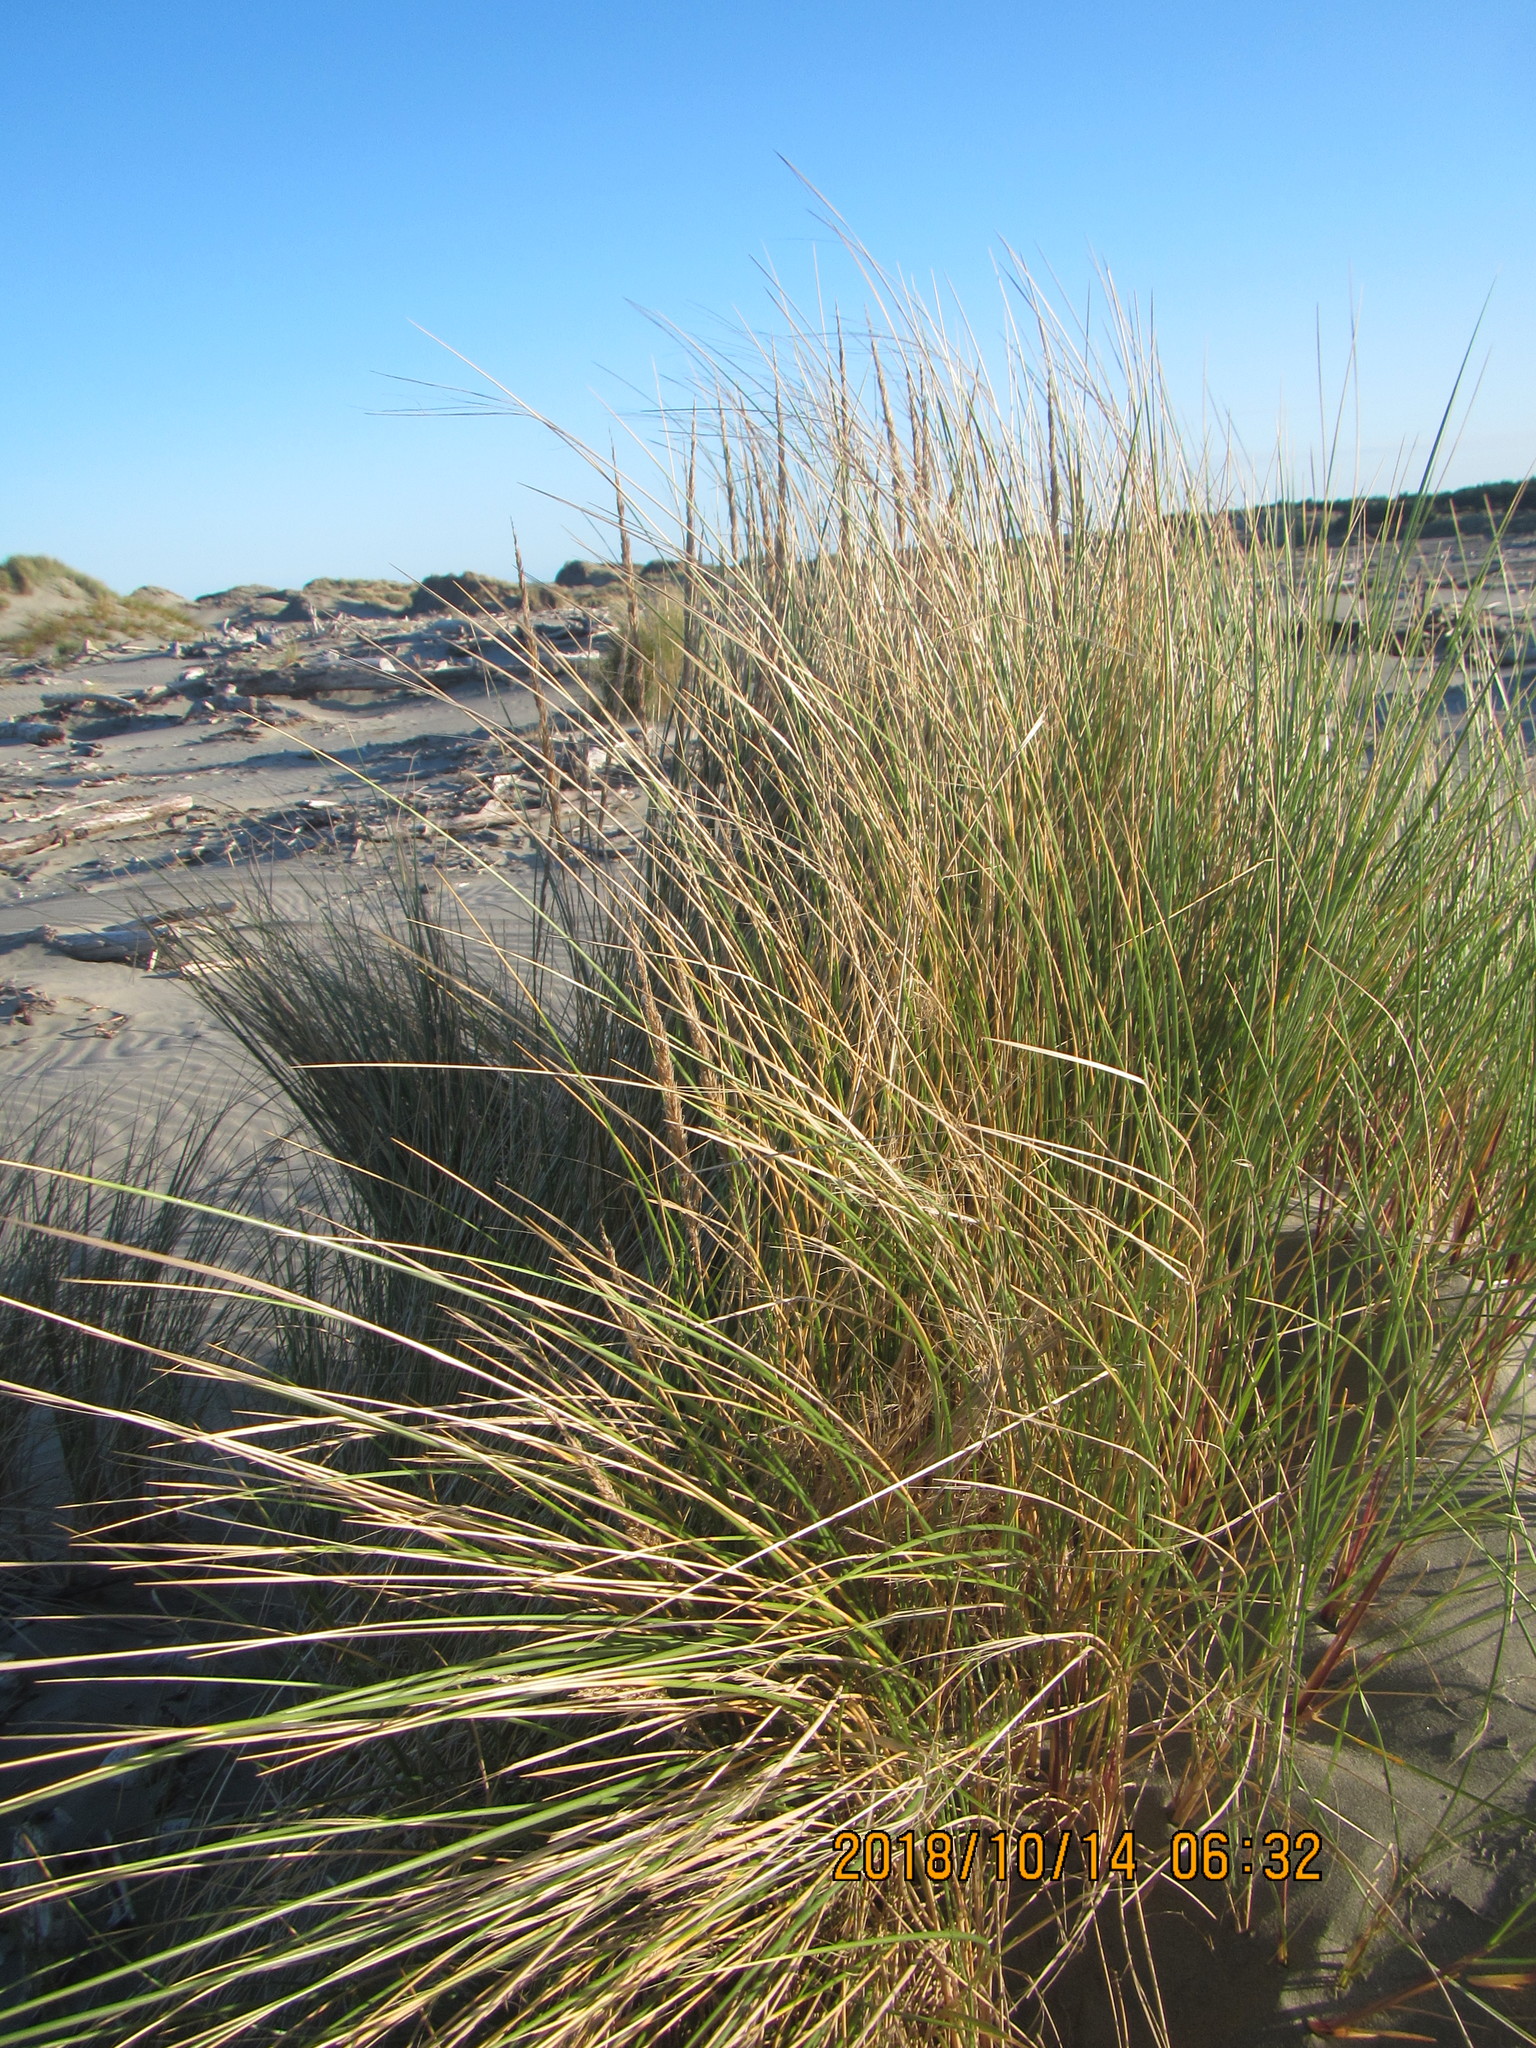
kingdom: Plantae
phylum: Tracheophyta
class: Liliopsida
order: Poales
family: Poaceae
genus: Calamagrostis
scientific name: Calamagrostis arenaria
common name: European beachgrass
